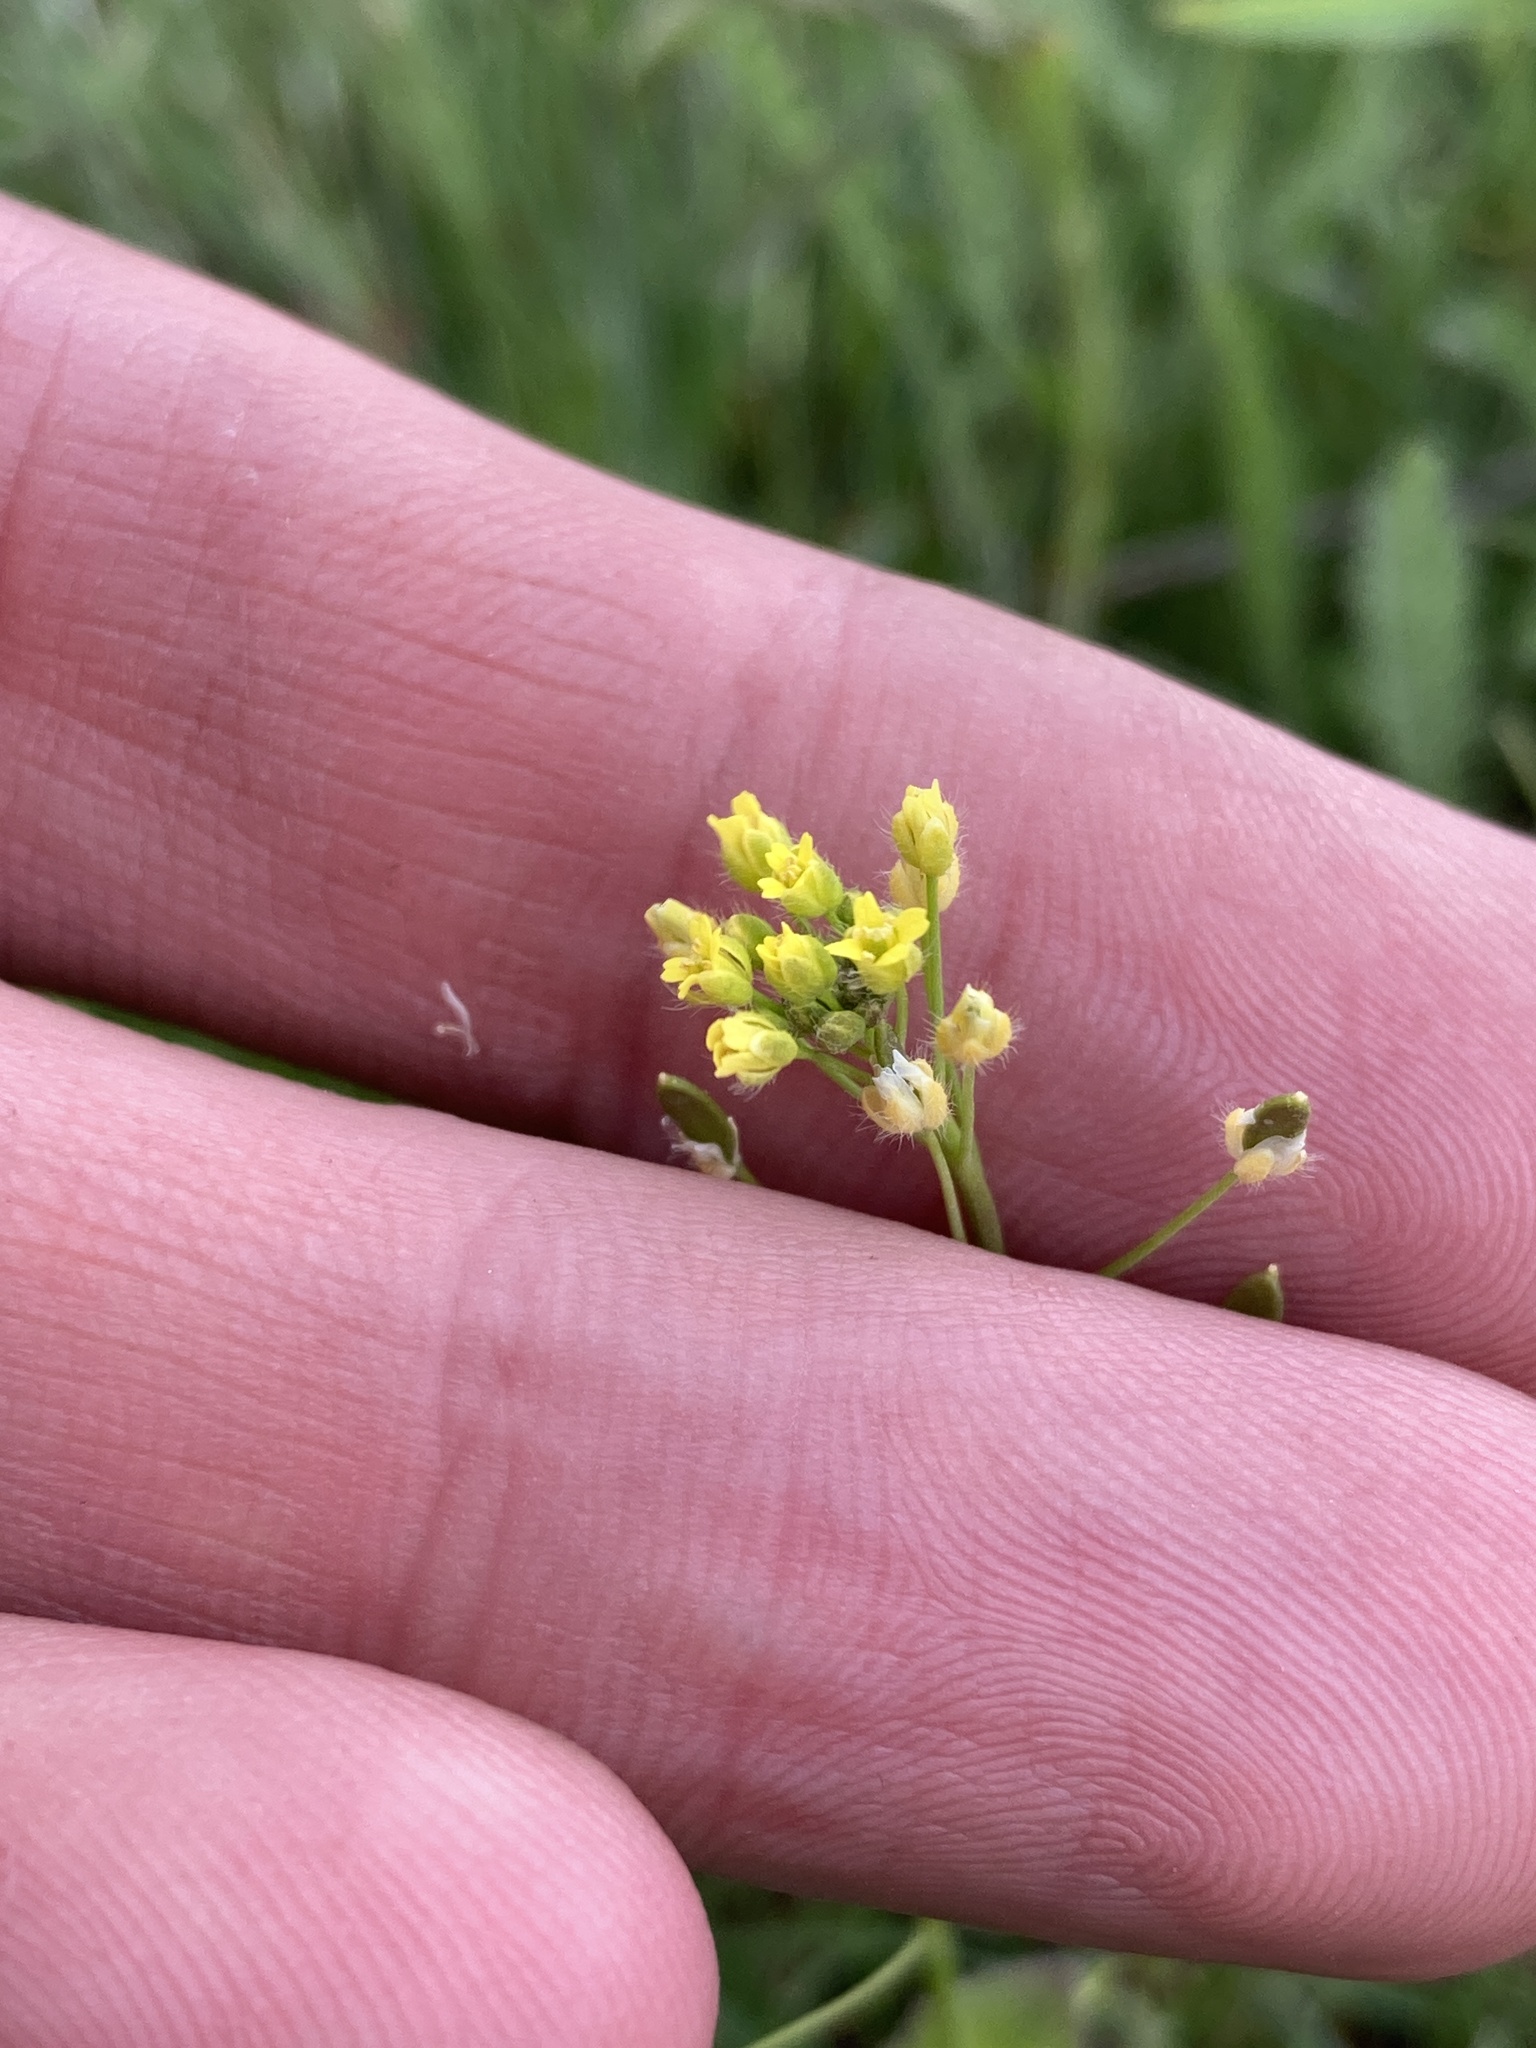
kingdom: Plantae
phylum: Tracheophyta
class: Magnoliopsida
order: Brassicales
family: Brassicaceae
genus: Draba
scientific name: Draba nemorosa
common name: Wood whitlow-grass
